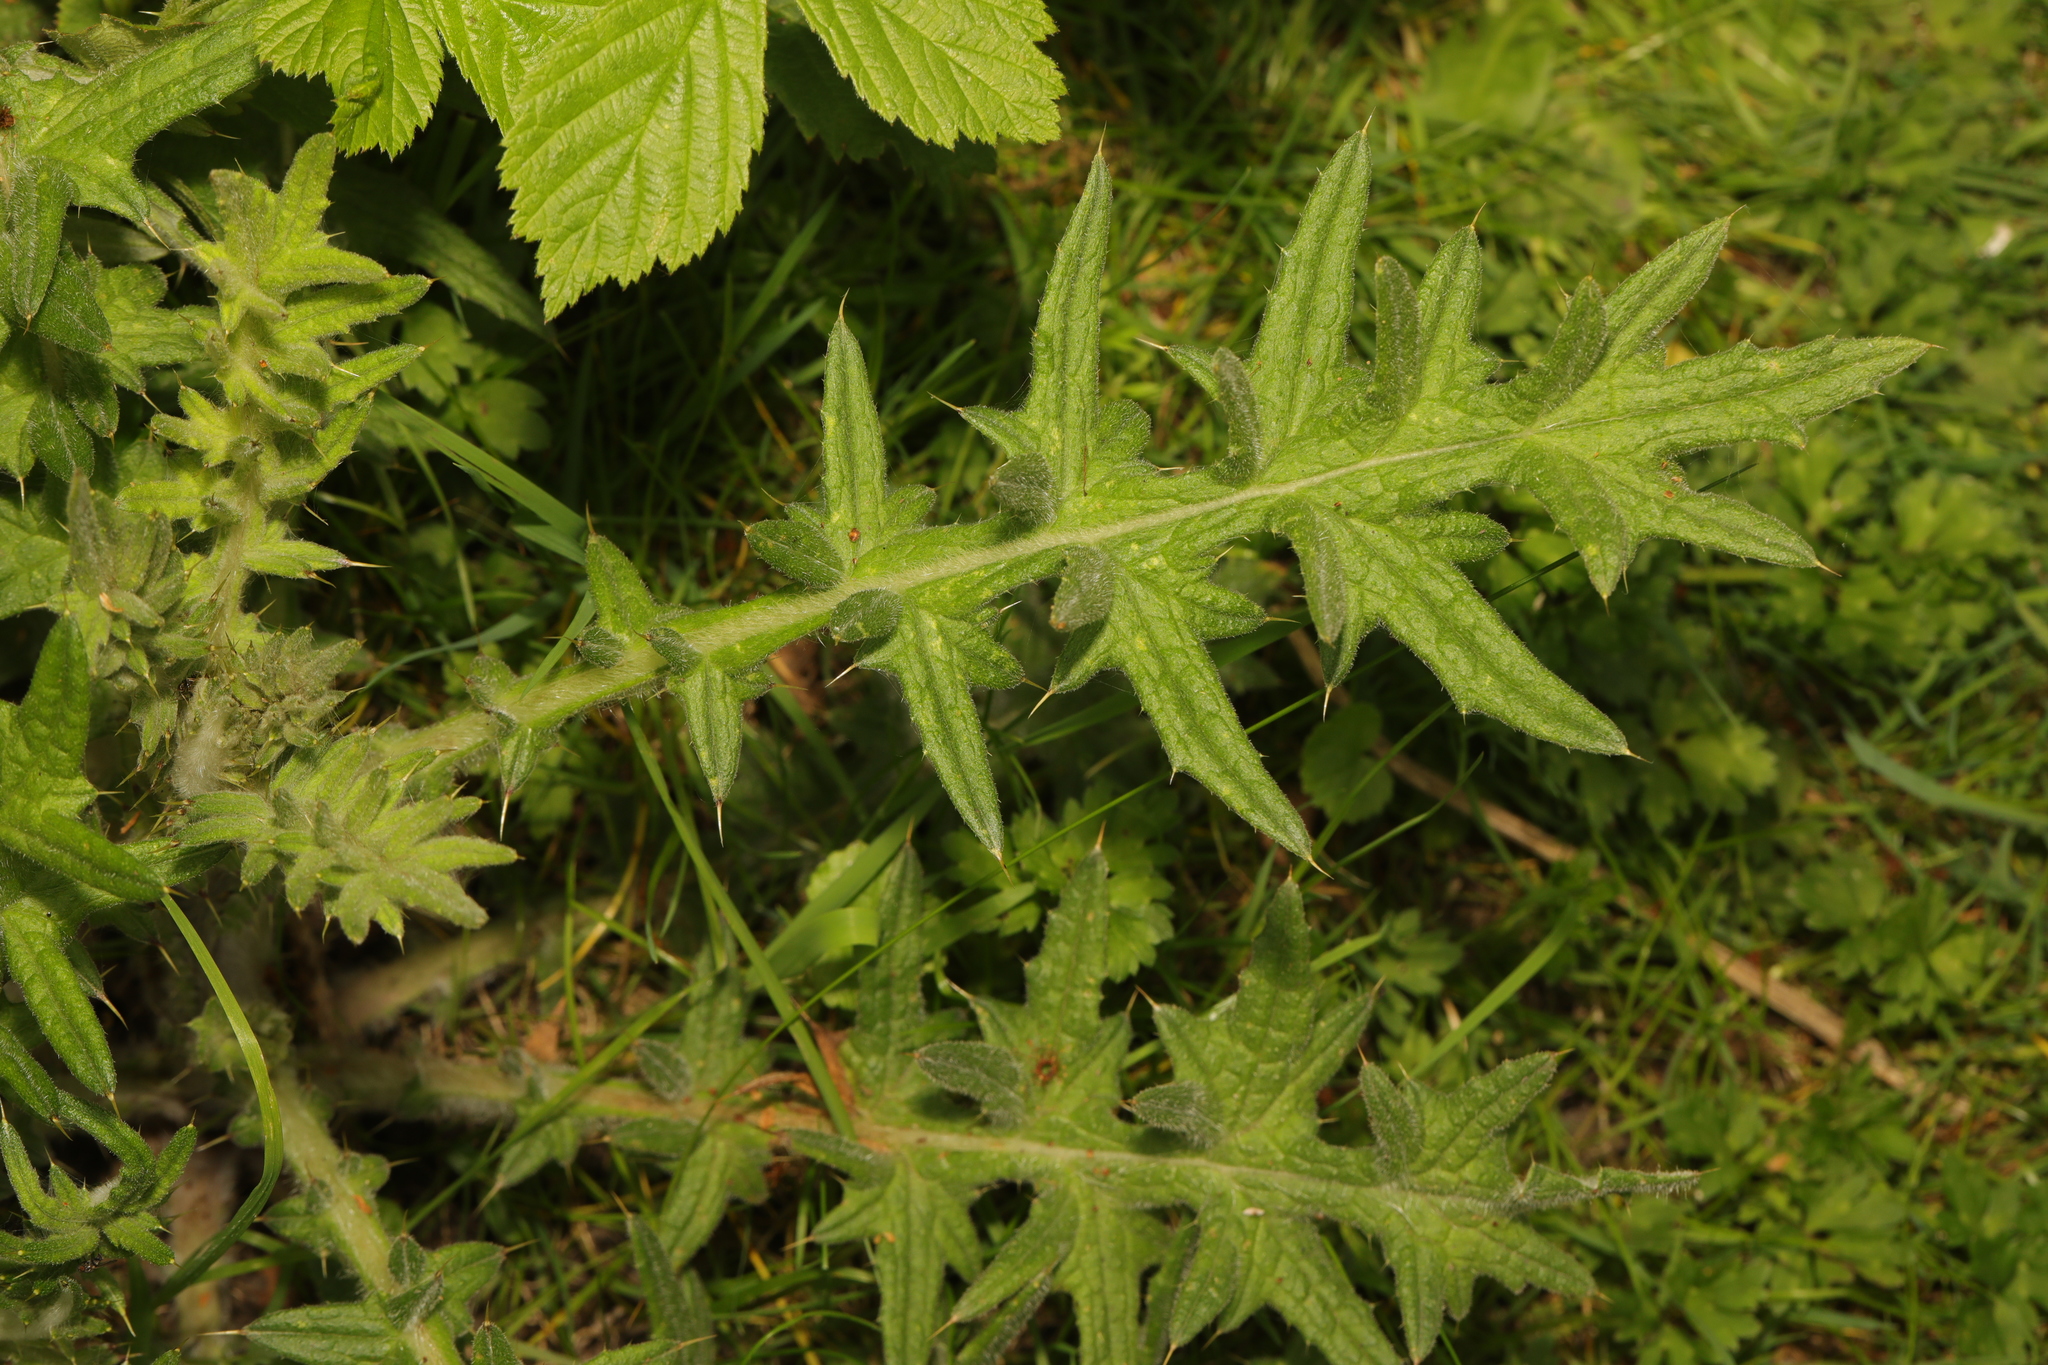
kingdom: Plantae
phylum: Tracheophyta
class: Magnoliopsida
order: Asterales
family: Asteraceae
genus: Cirsium
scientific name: Cirsium vulgare
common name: Bull thistle
